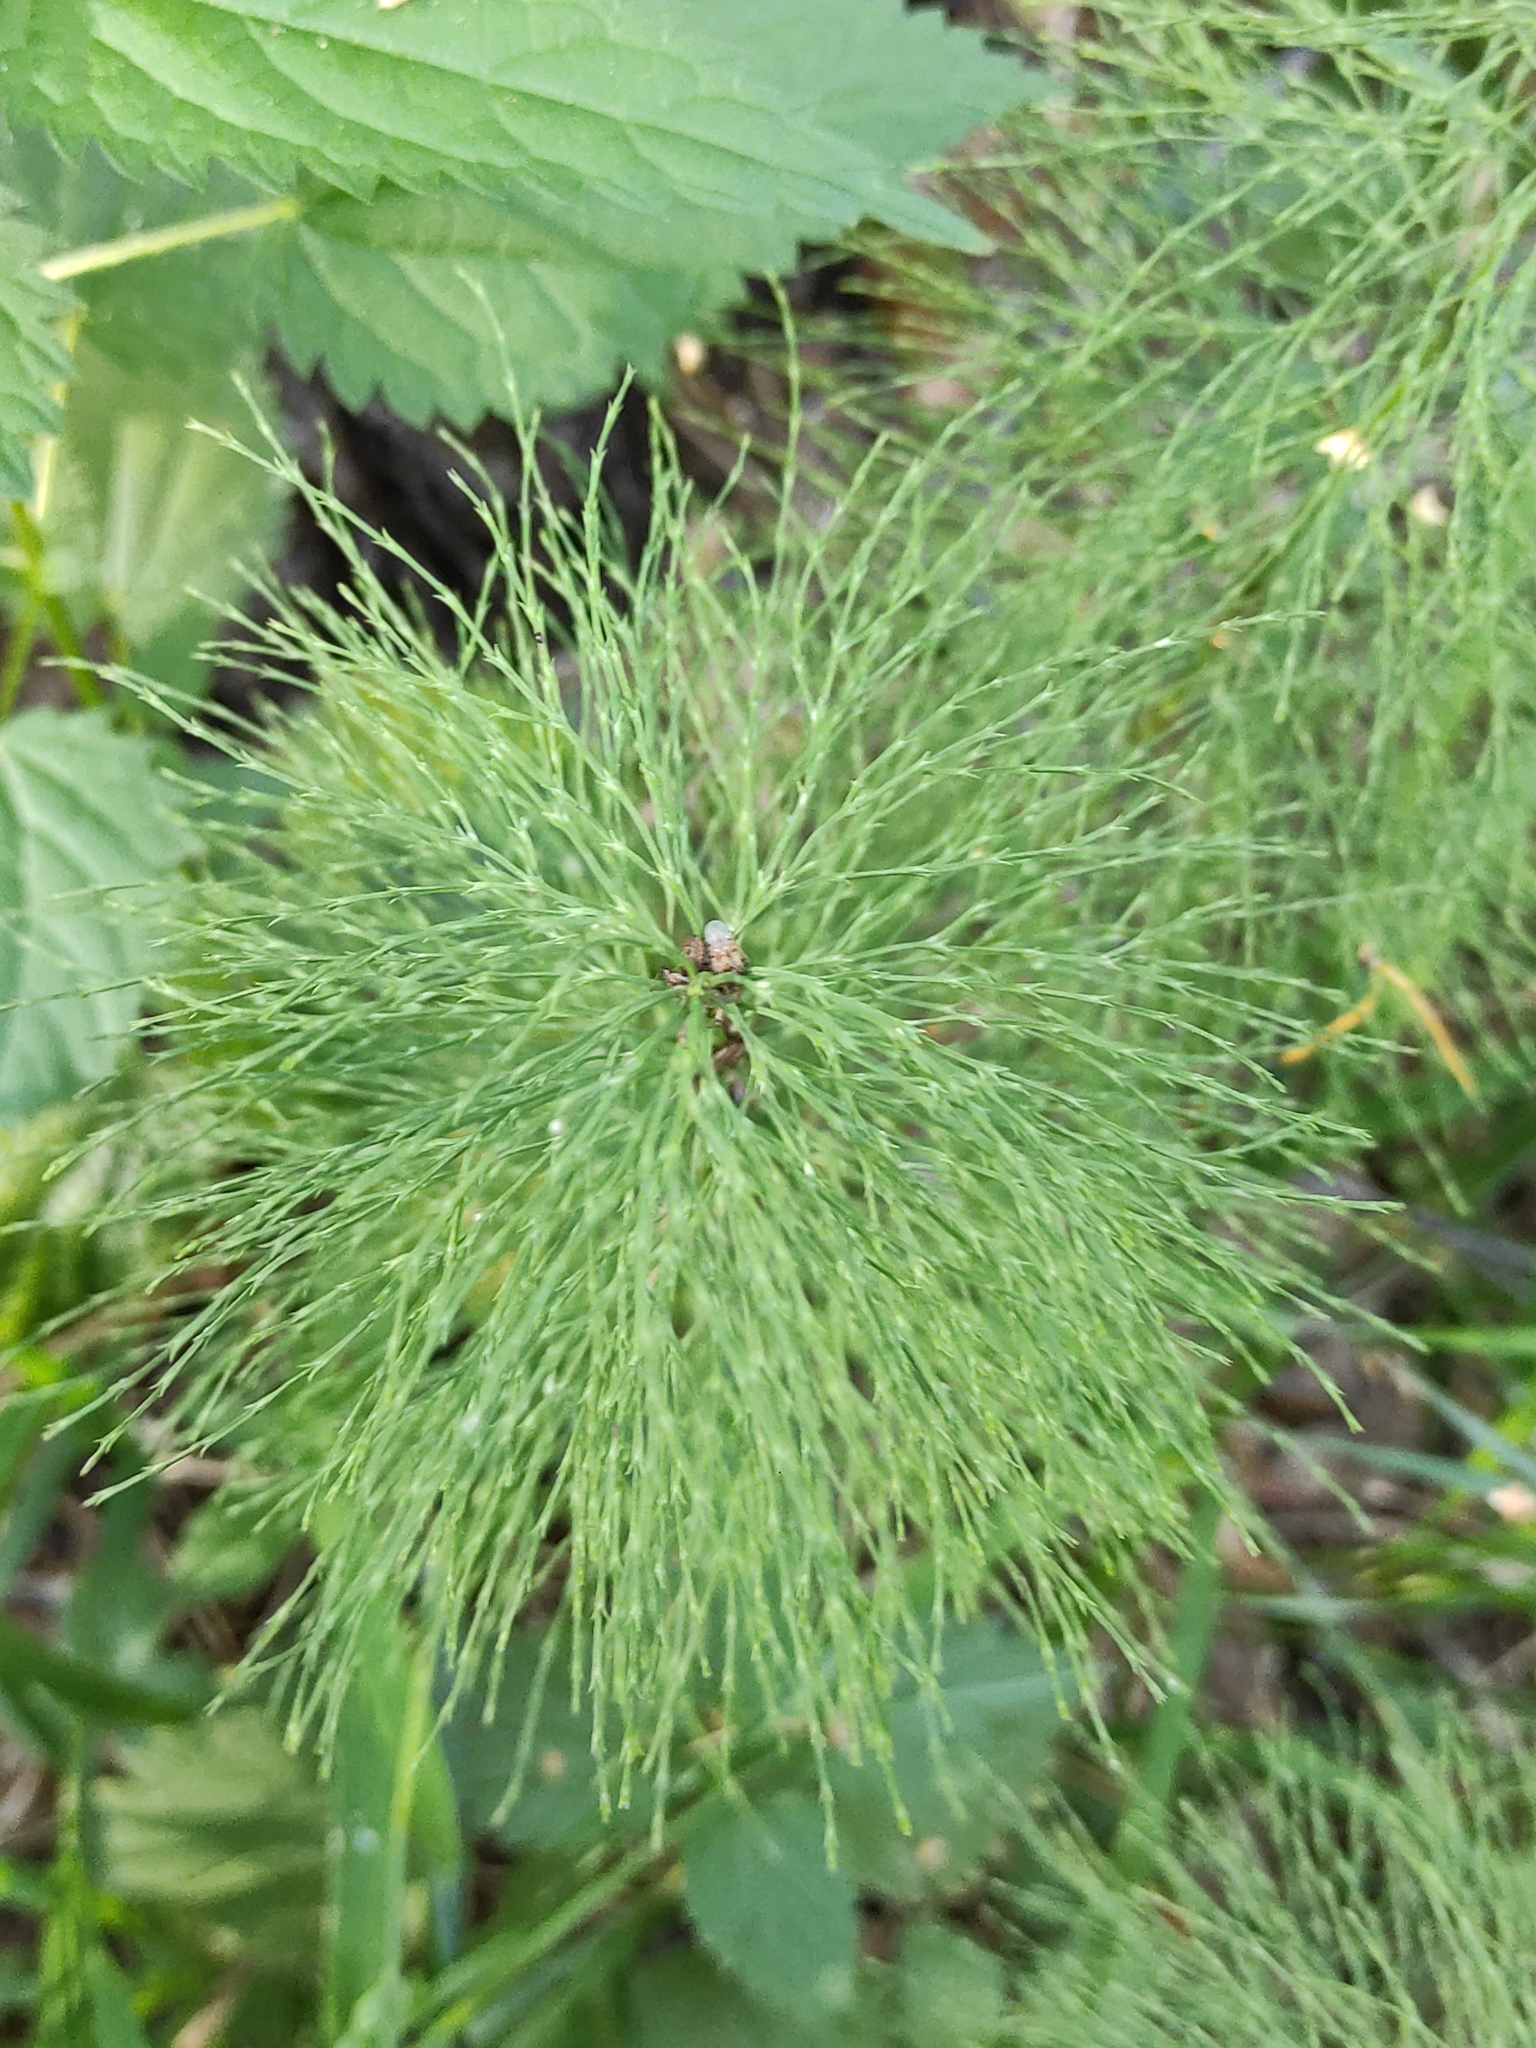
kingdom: Plantae
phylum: Tracheophyta
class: Polypodiopsida
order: Equisetales
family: Equisetaceae
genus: Equisetum
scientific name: Equisetum sylvaticum
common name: Wood horsetail
